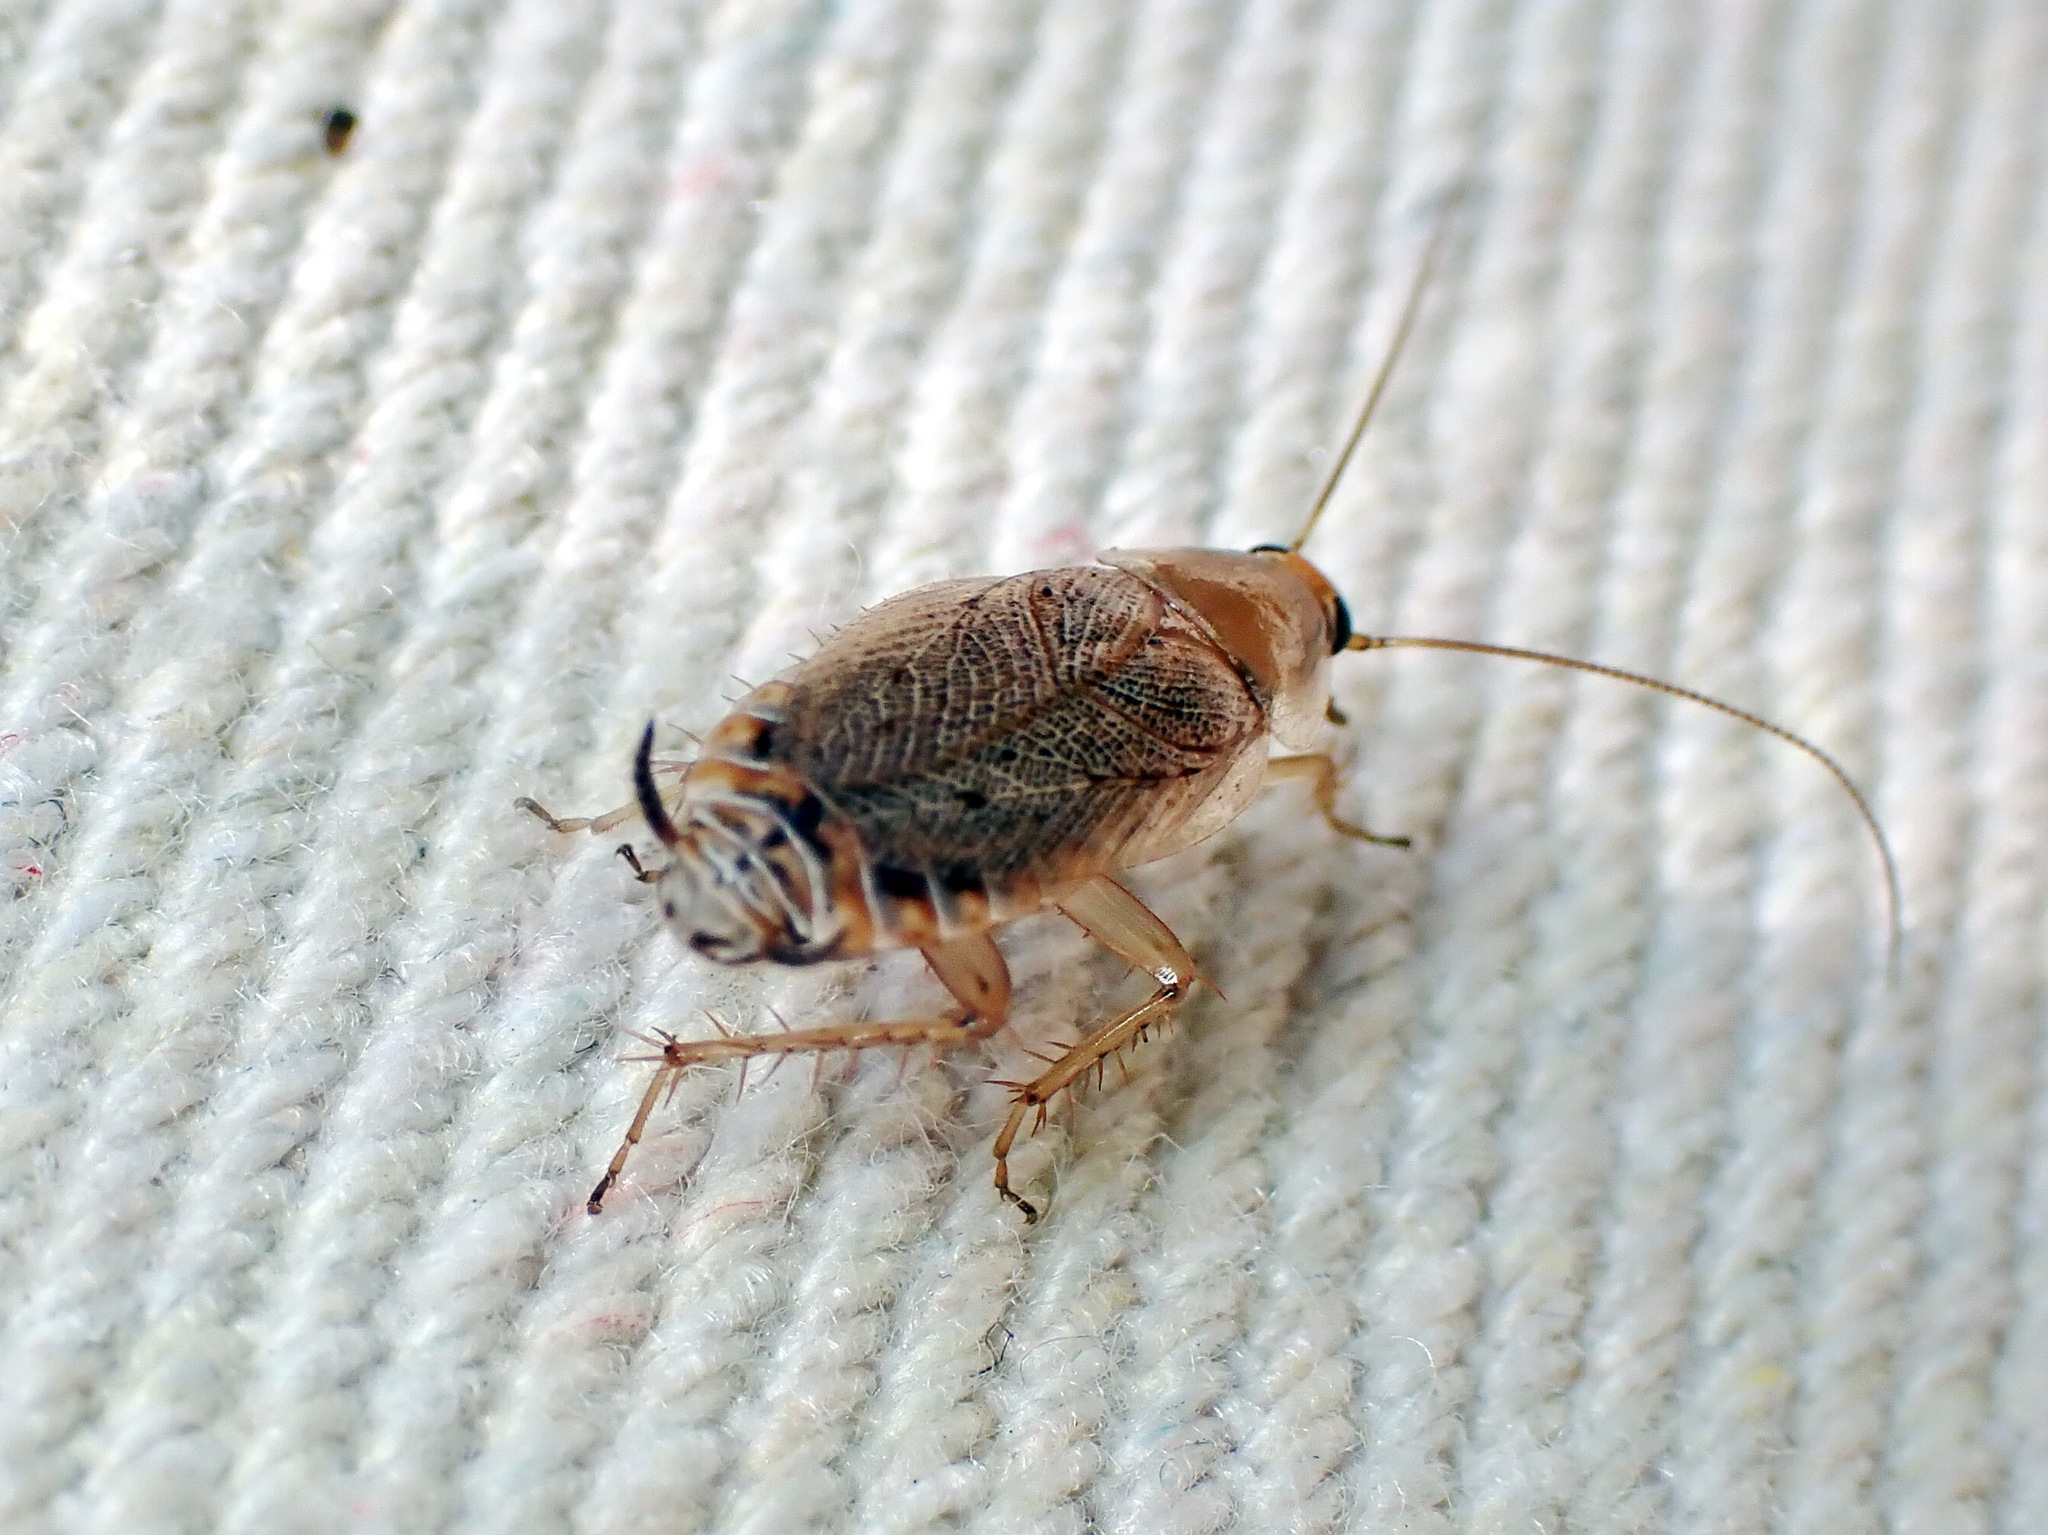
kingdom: Animalia
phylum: Arthropoda
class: Insecta
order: Blattodea
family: Ectobiidae
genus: Ectobius
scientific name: Ectobius lapponicus
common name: Dusky cockroach
